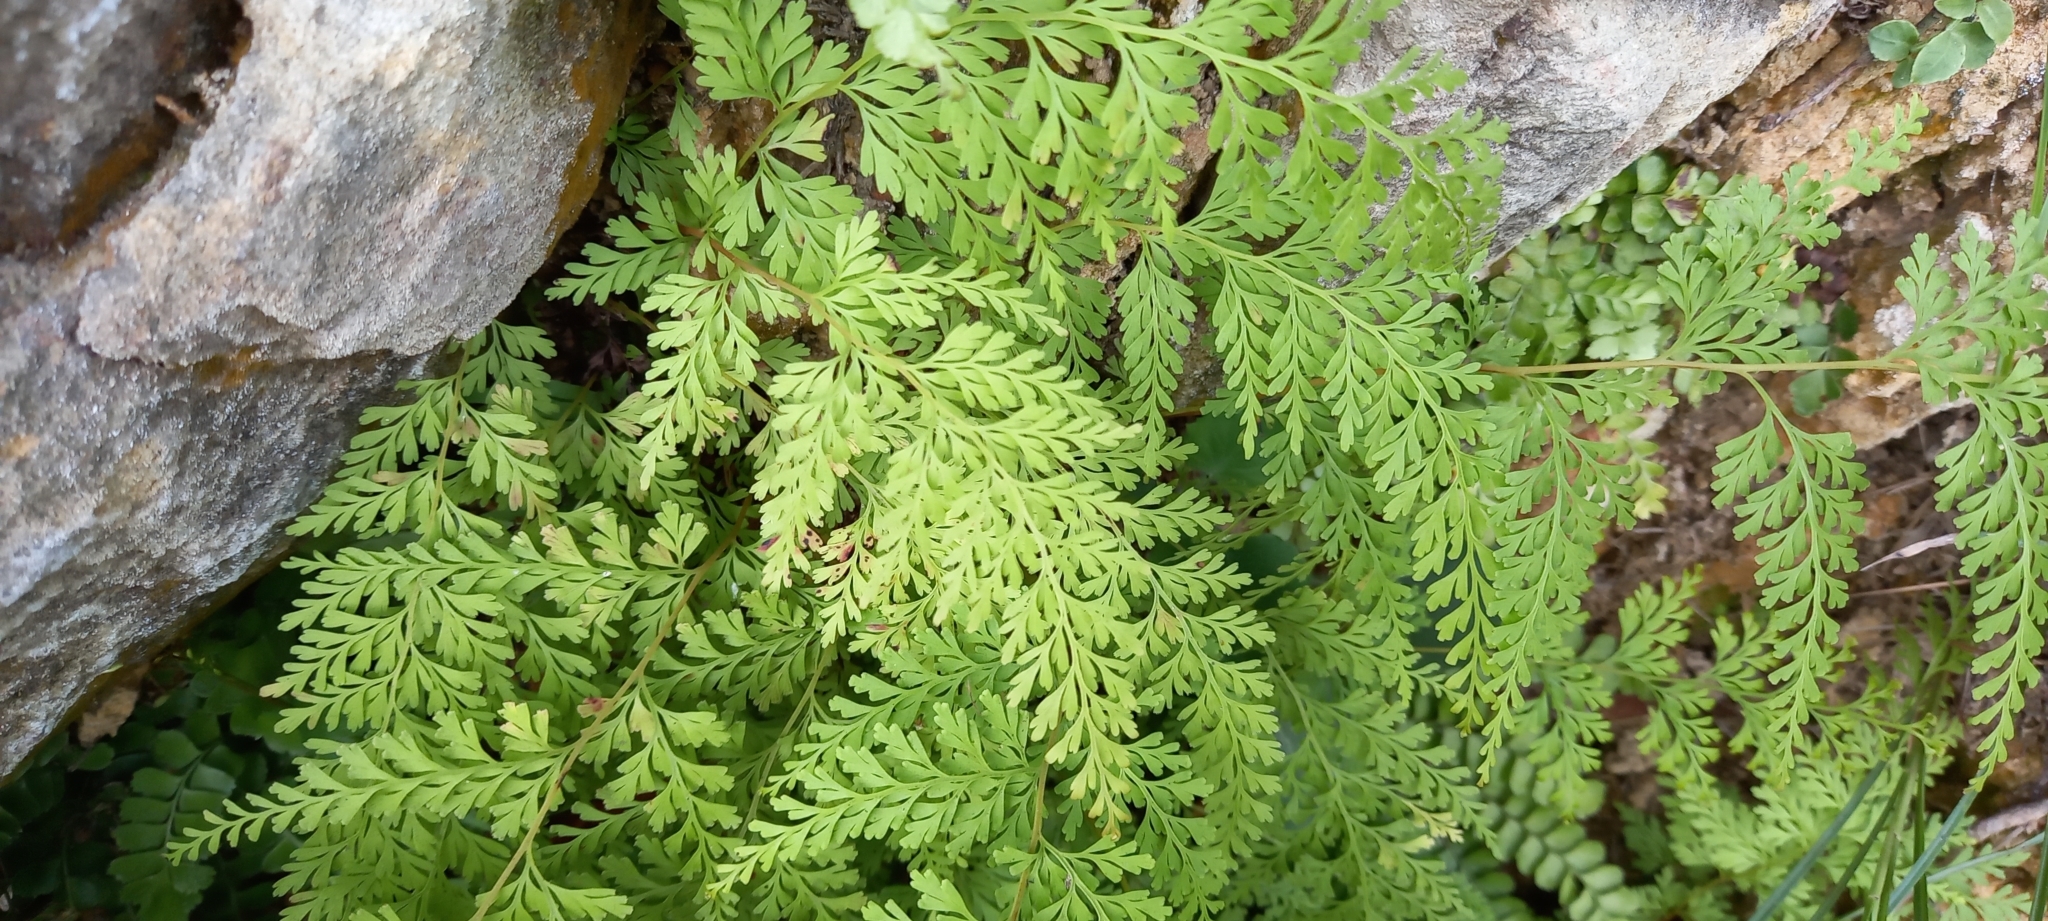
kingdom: Plantae
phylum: Tracheophyta
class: Polypodiopsida
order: Polypodiales
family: Lindsaeaceae
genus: Odontosoria
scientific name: Odontosoria chinensis
